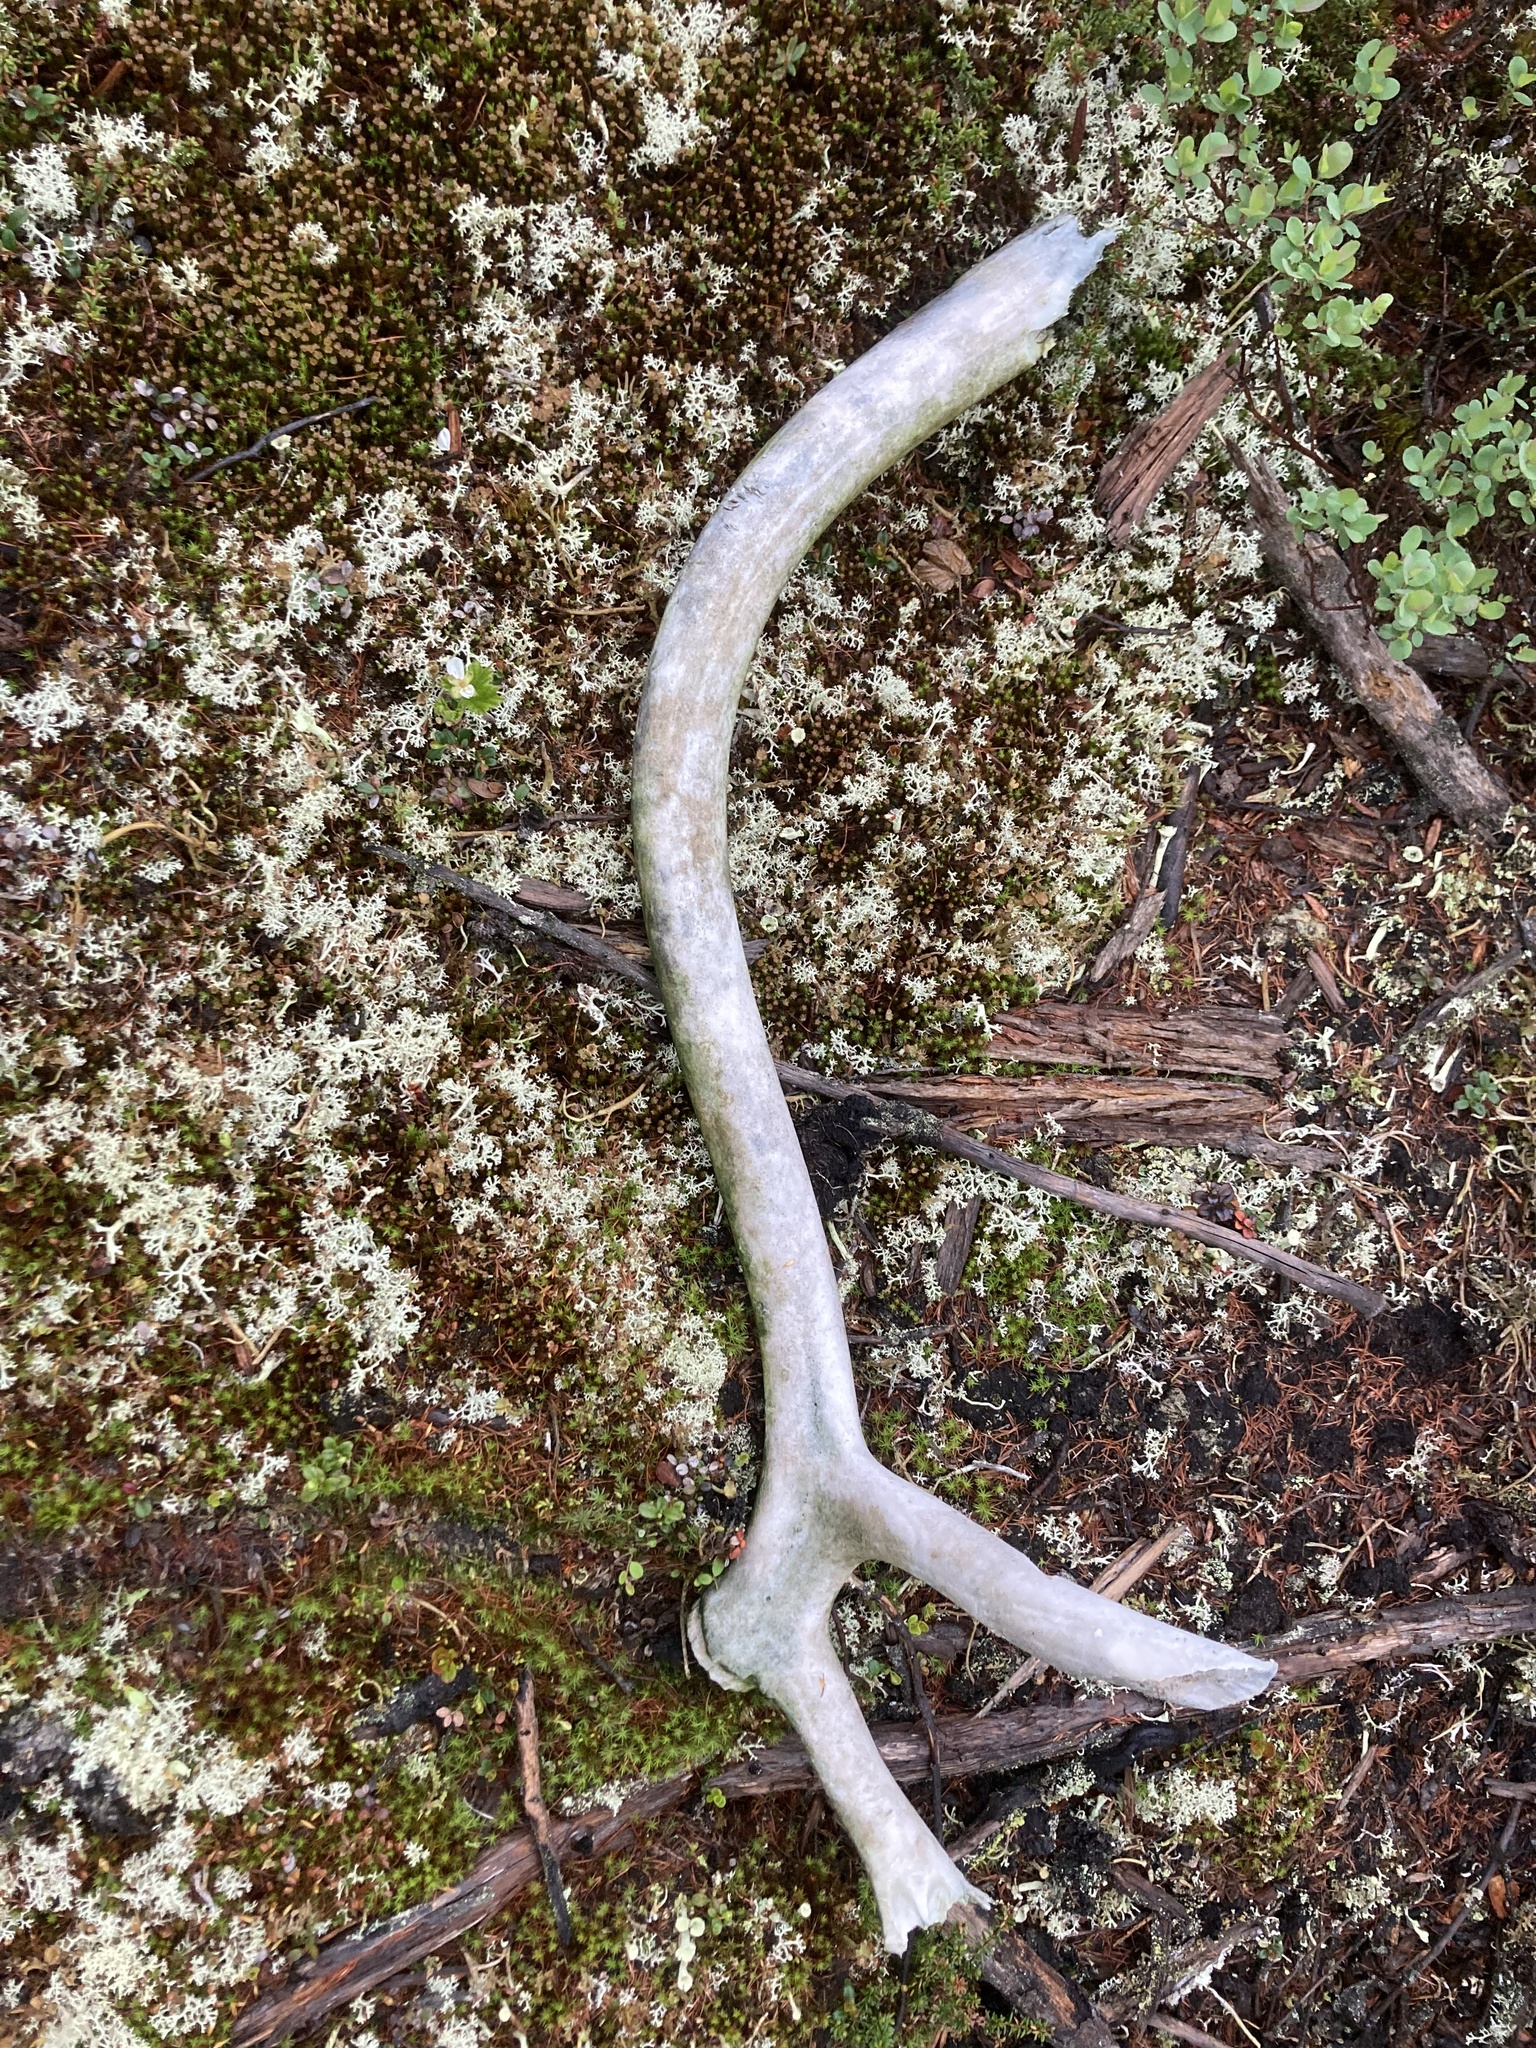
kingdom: Animalia
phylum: Chordata
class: Mammalia
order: Artiodactyla
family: Cervidae
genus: Rangifer
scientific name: Rangifer tarandus
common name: Reindeer
